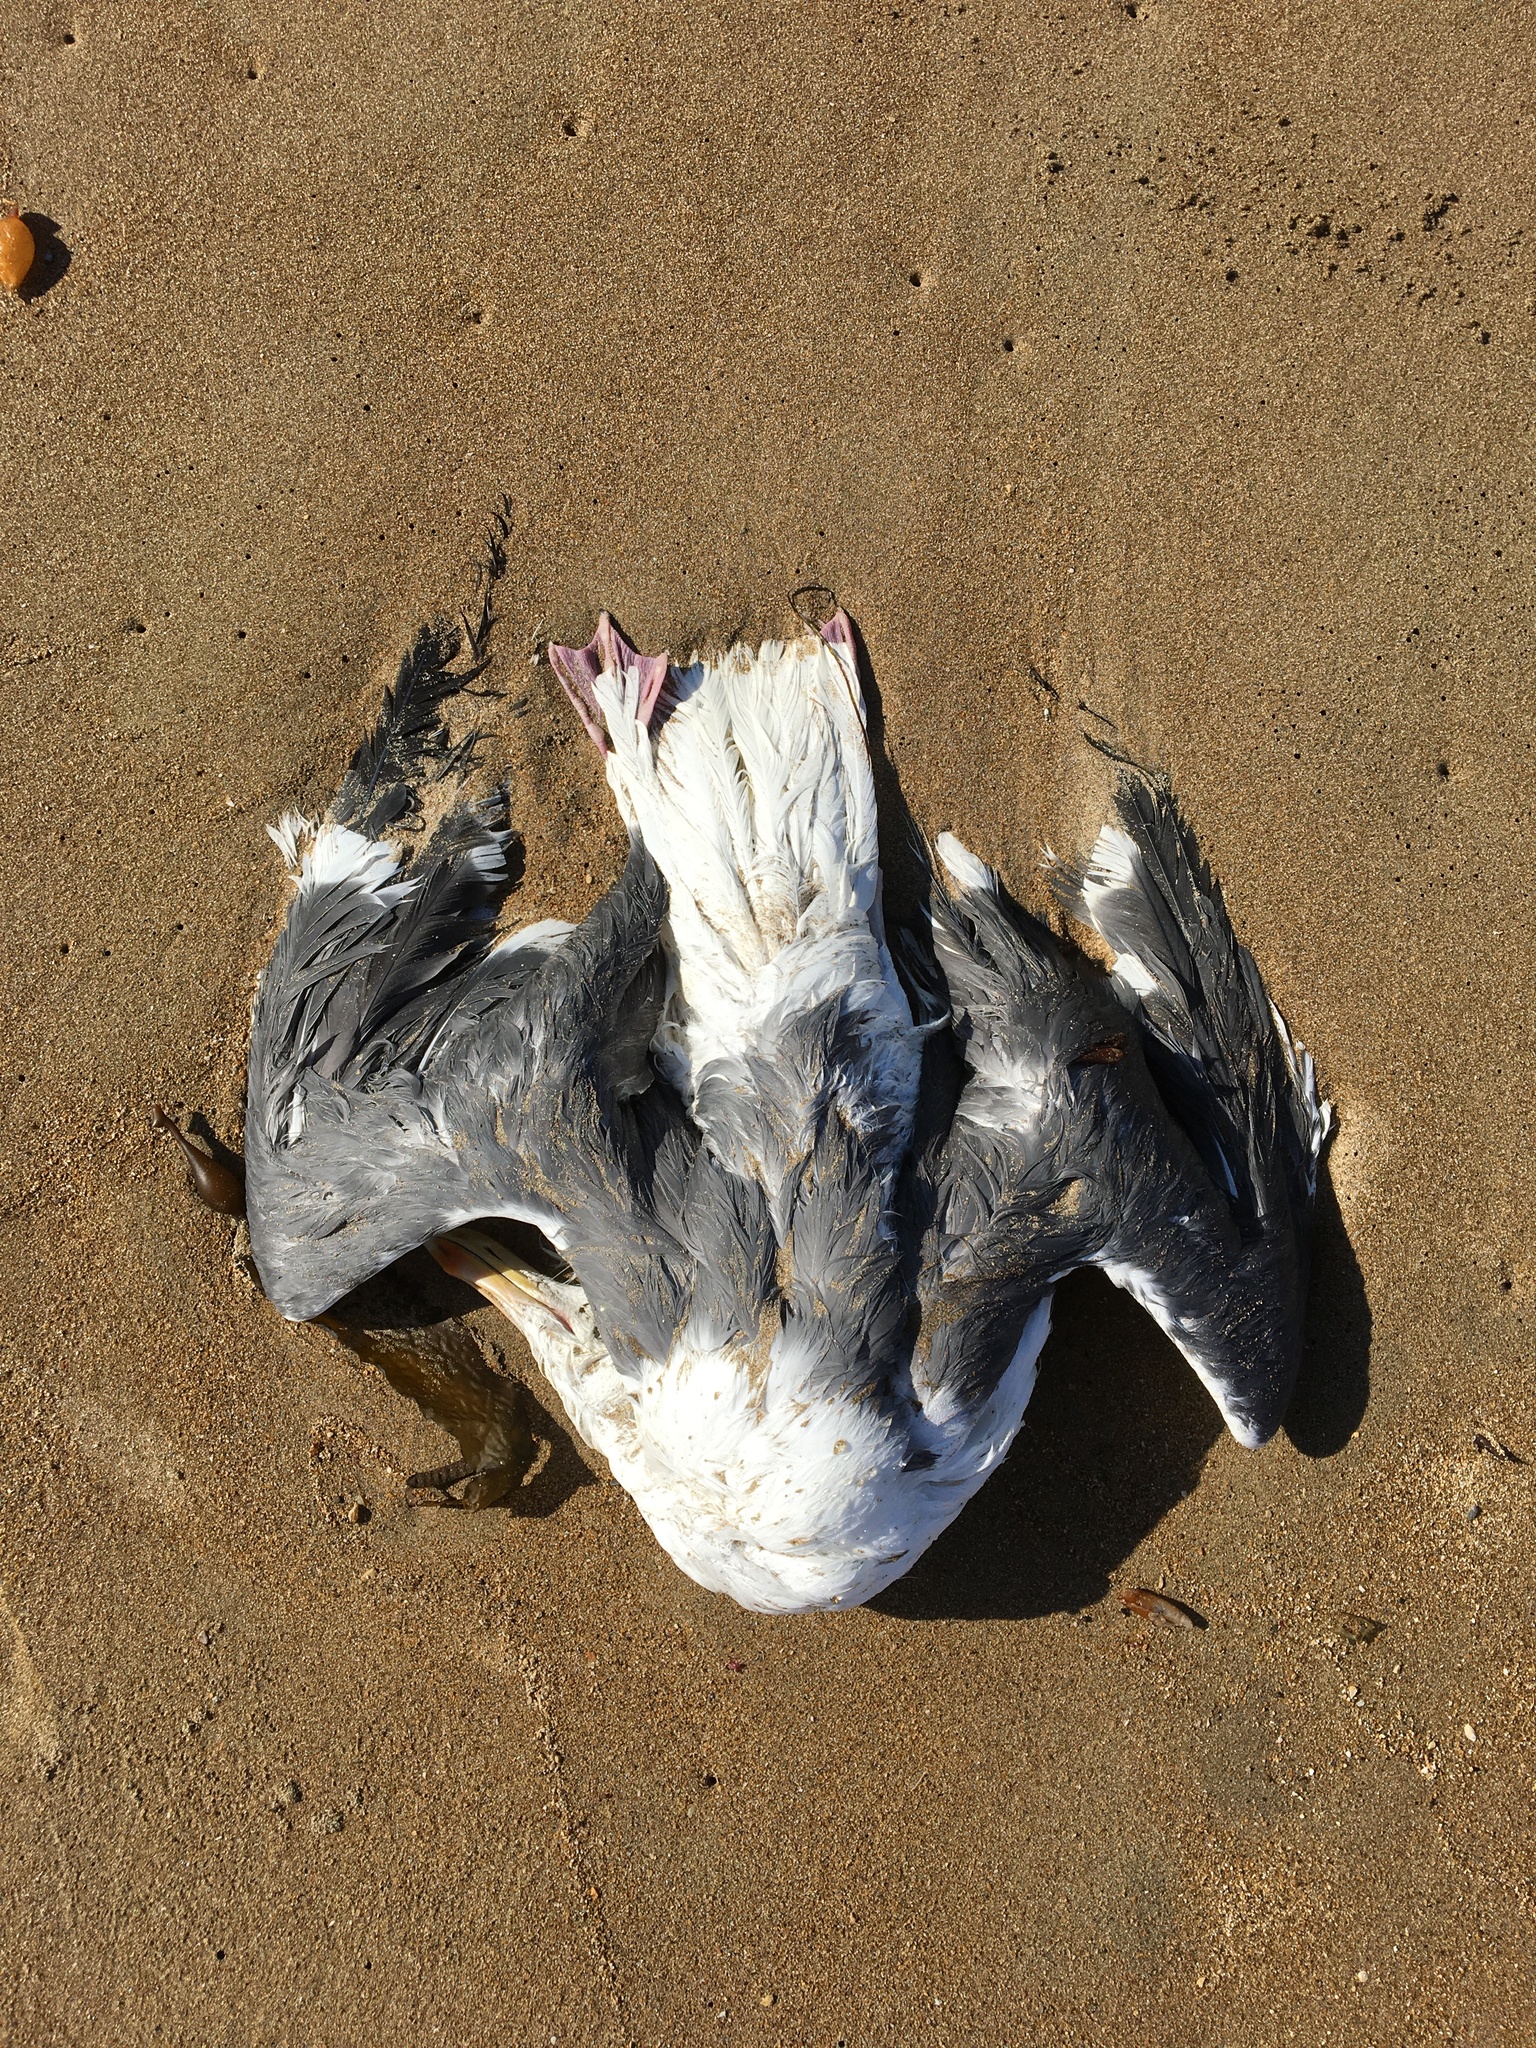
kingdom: Animalia
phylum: Chordata
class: Aves
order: Charadriiformes
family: Laridae
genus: Larus
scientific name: Larus occidentalis
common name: Western gull
